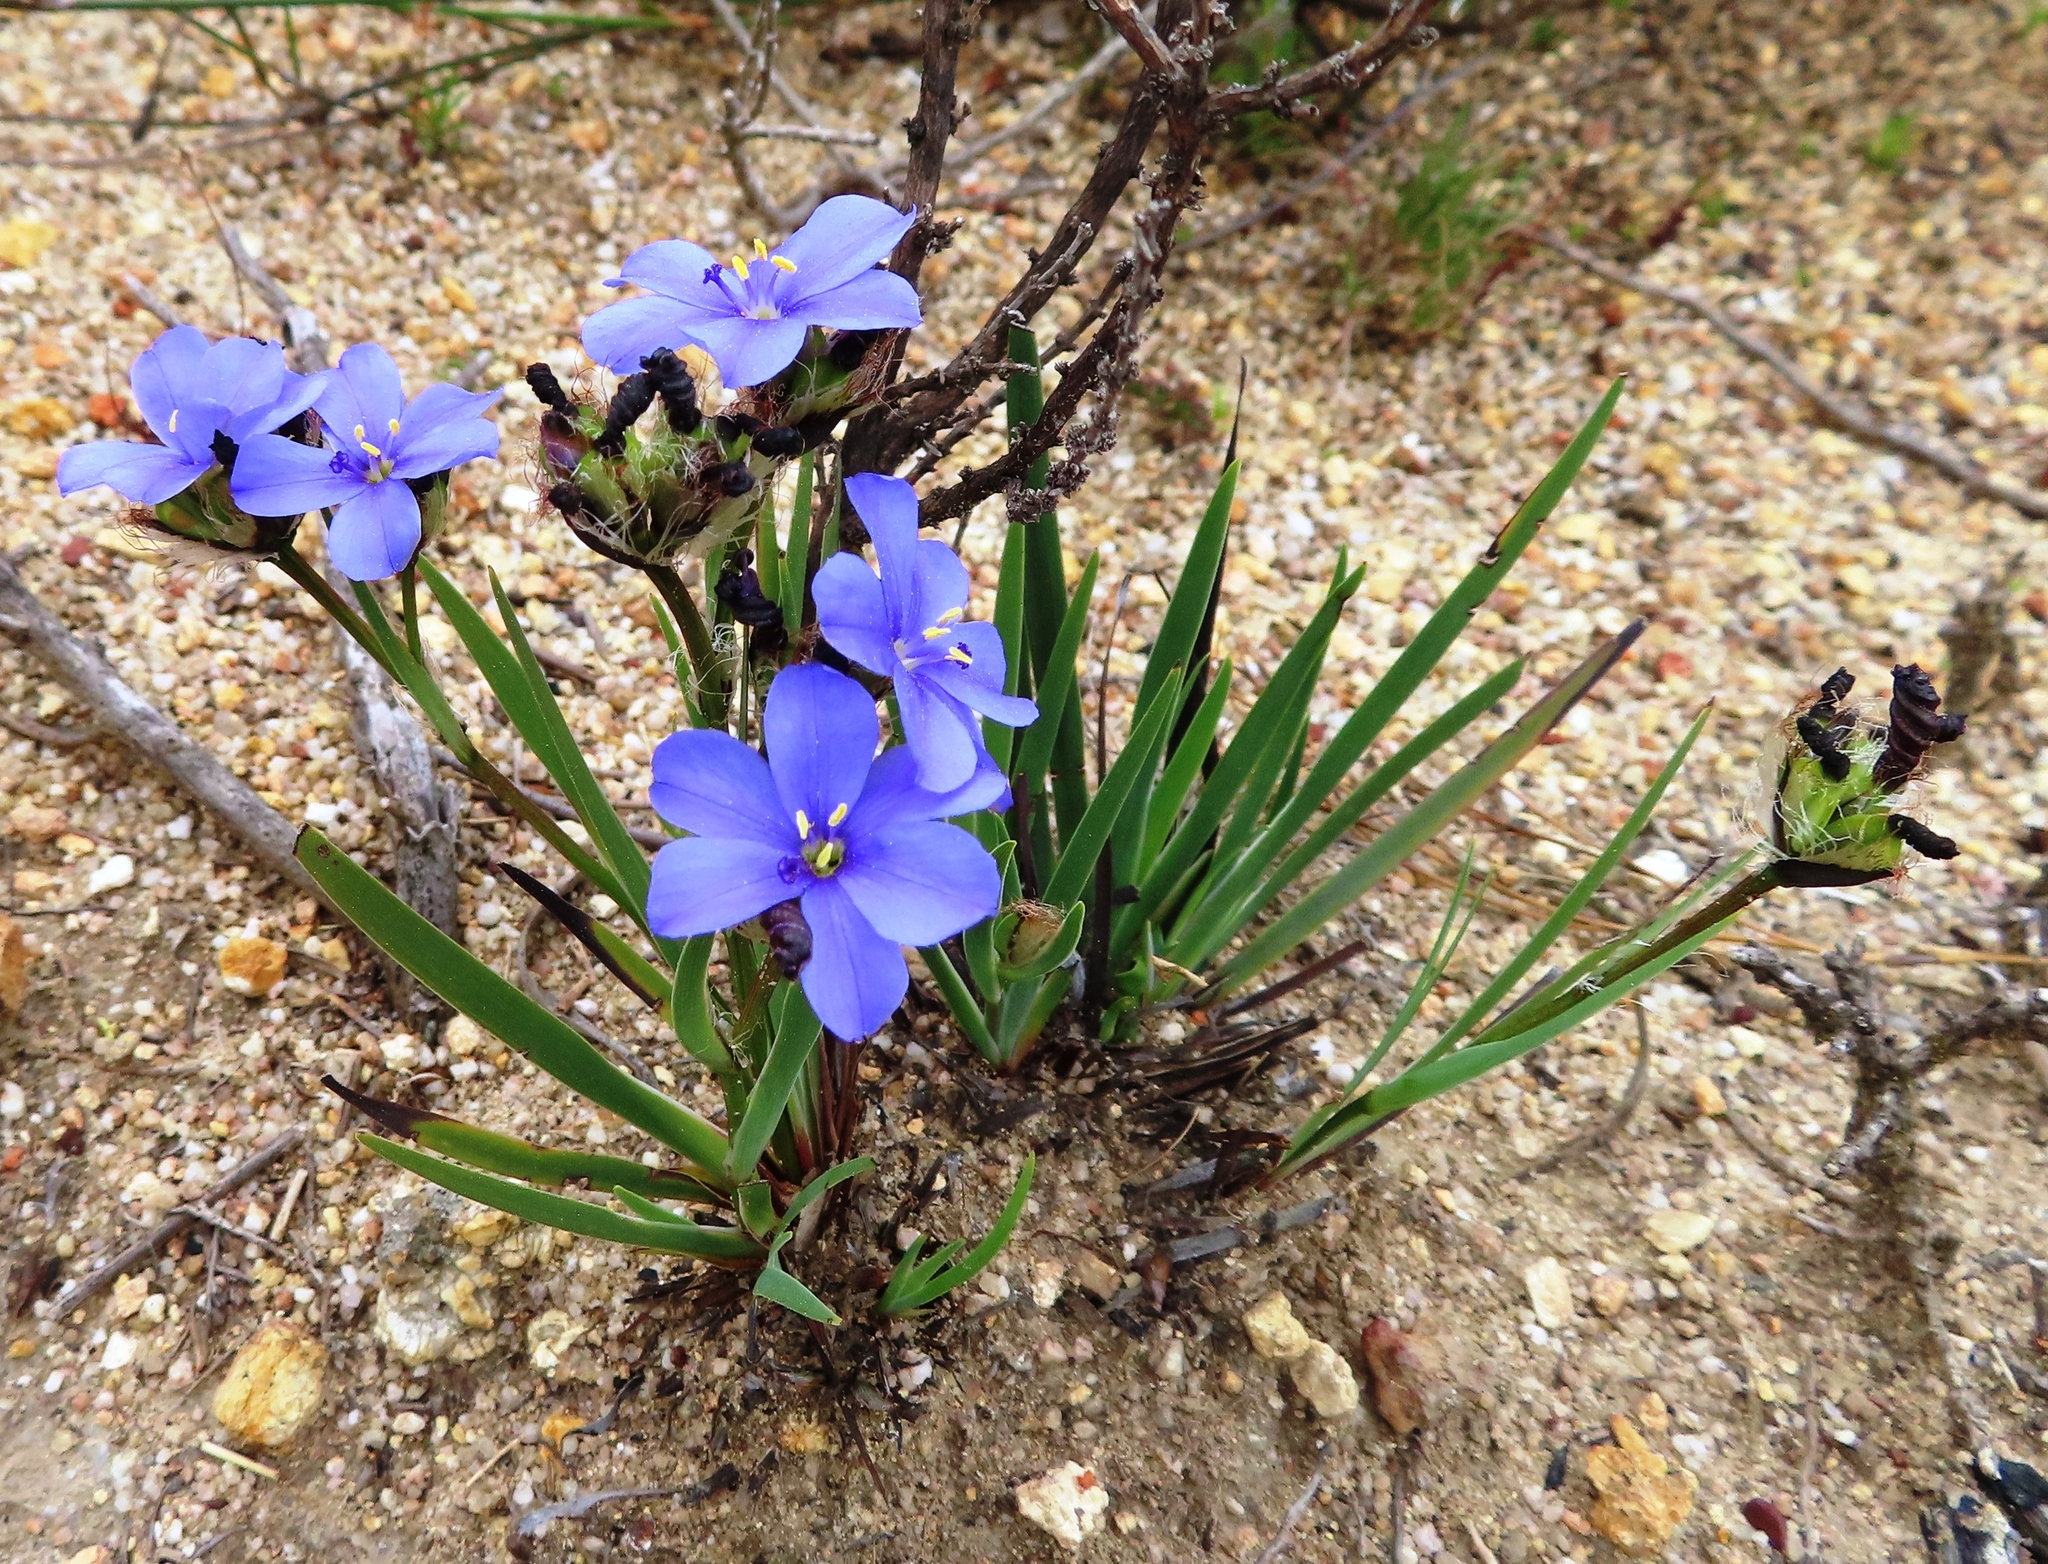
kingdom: Plantae
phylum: Tracheophyta
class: Liliopsida
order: Asparagales
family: Iridaceae
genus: Aristea
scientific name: Aristea africana
